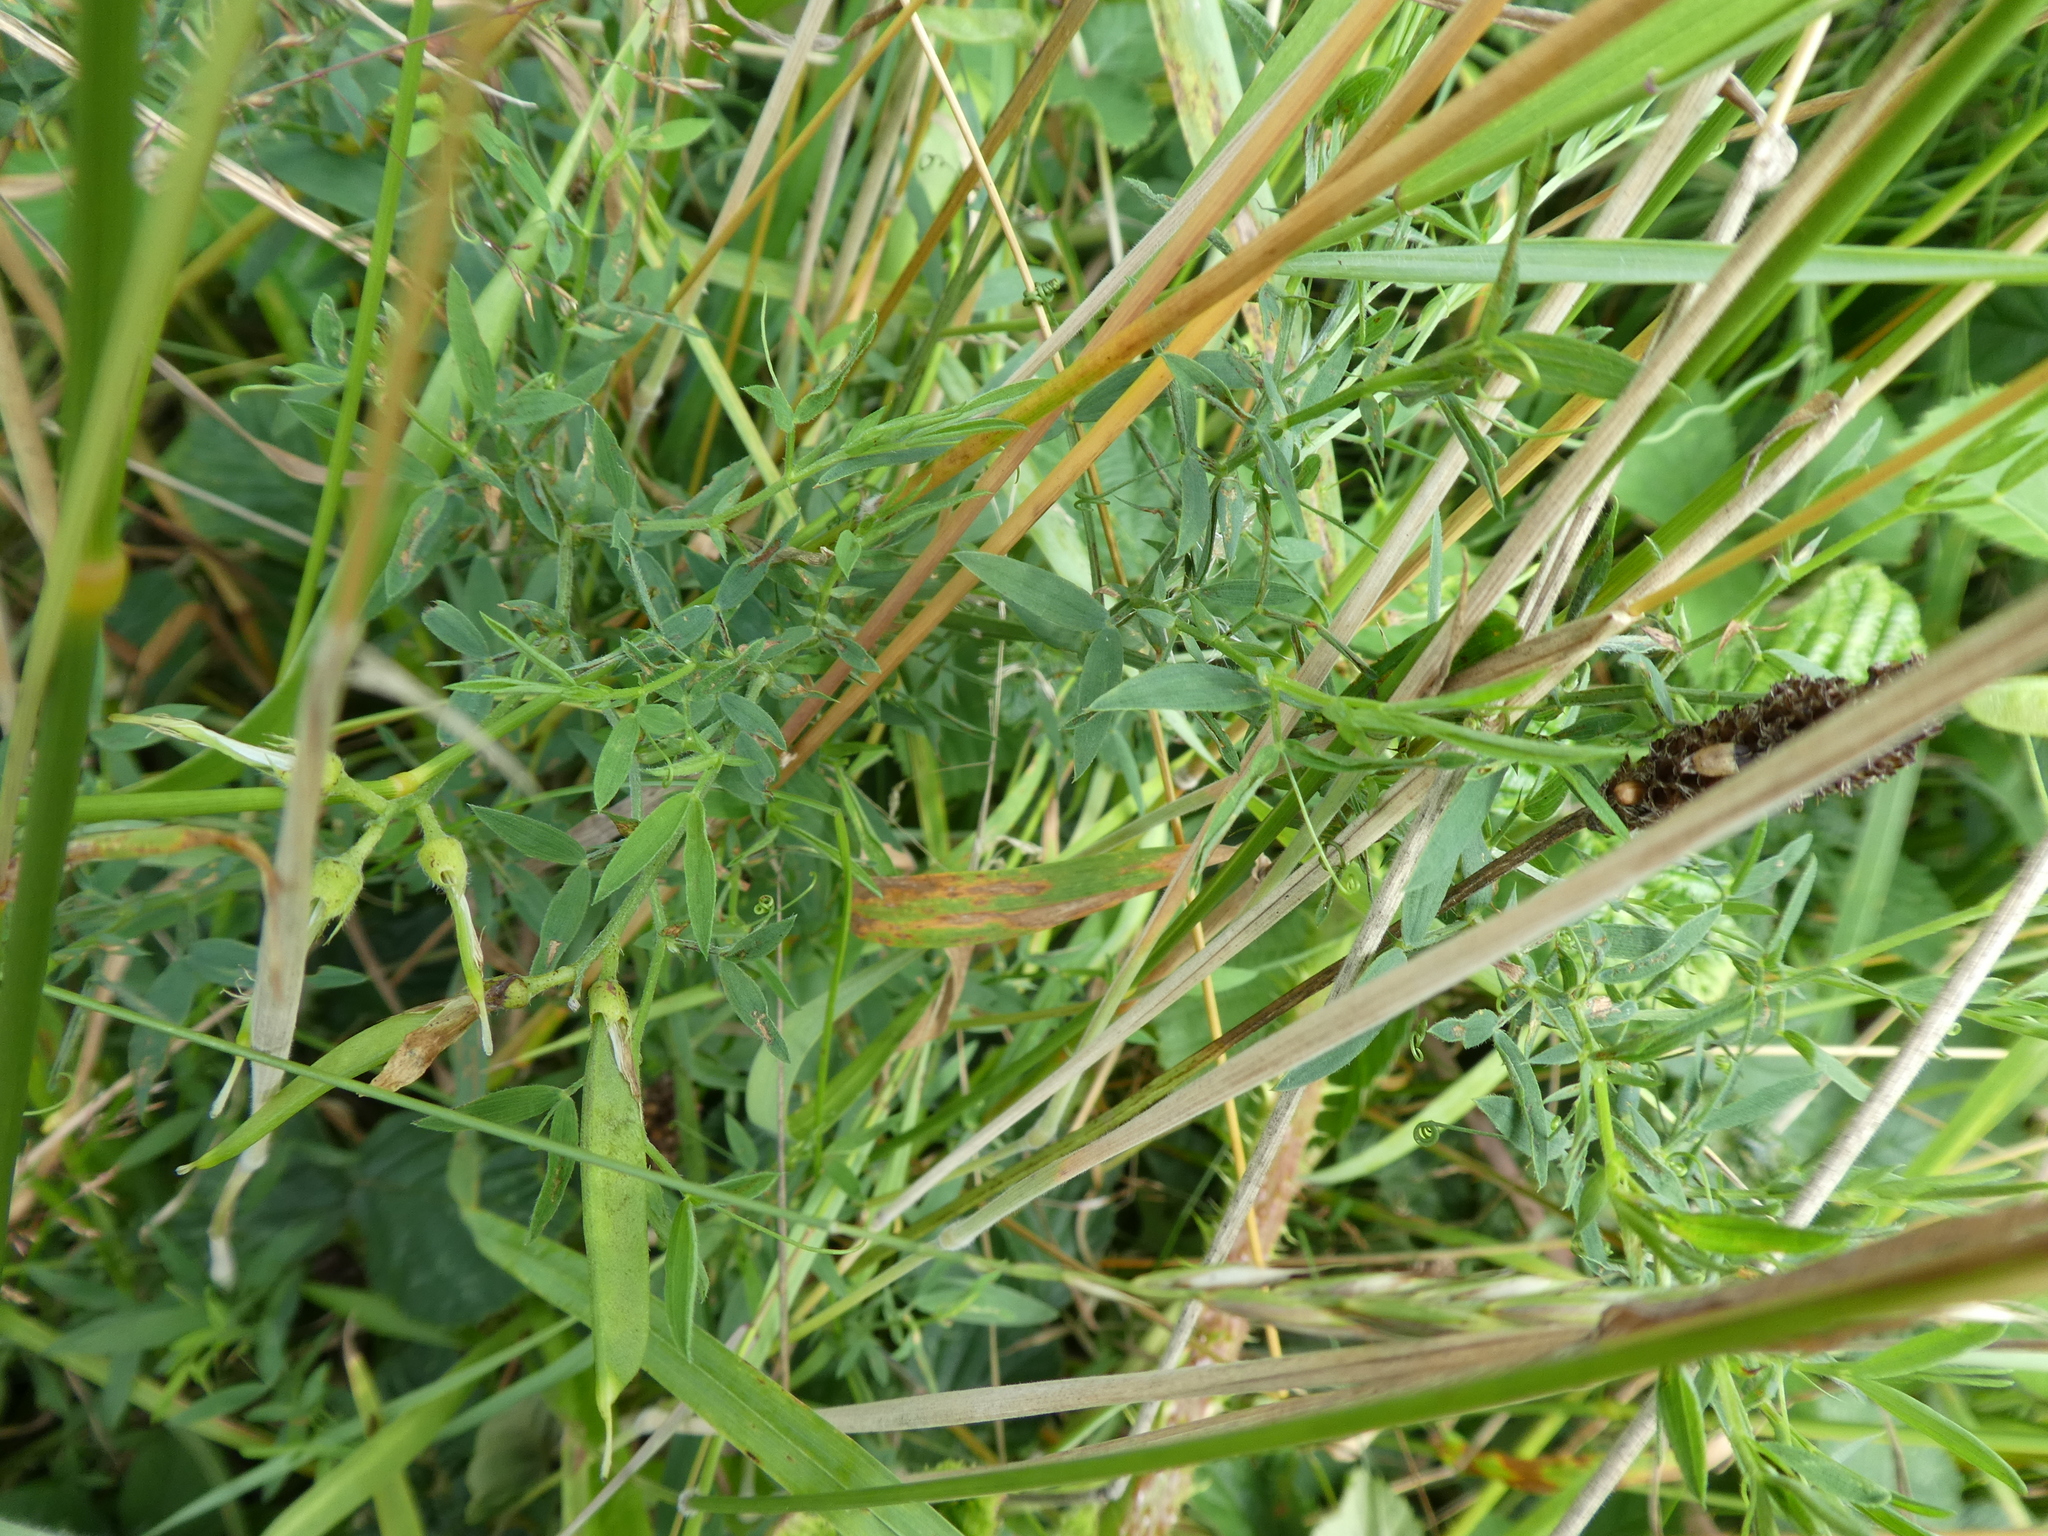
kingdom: Plantae
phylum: Tracheophyta
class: Magnoliopsida
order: Fabales
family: Fabaceae
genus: Lathyrus
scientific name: Lathyrus pratensis
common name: Meadow vetchling
